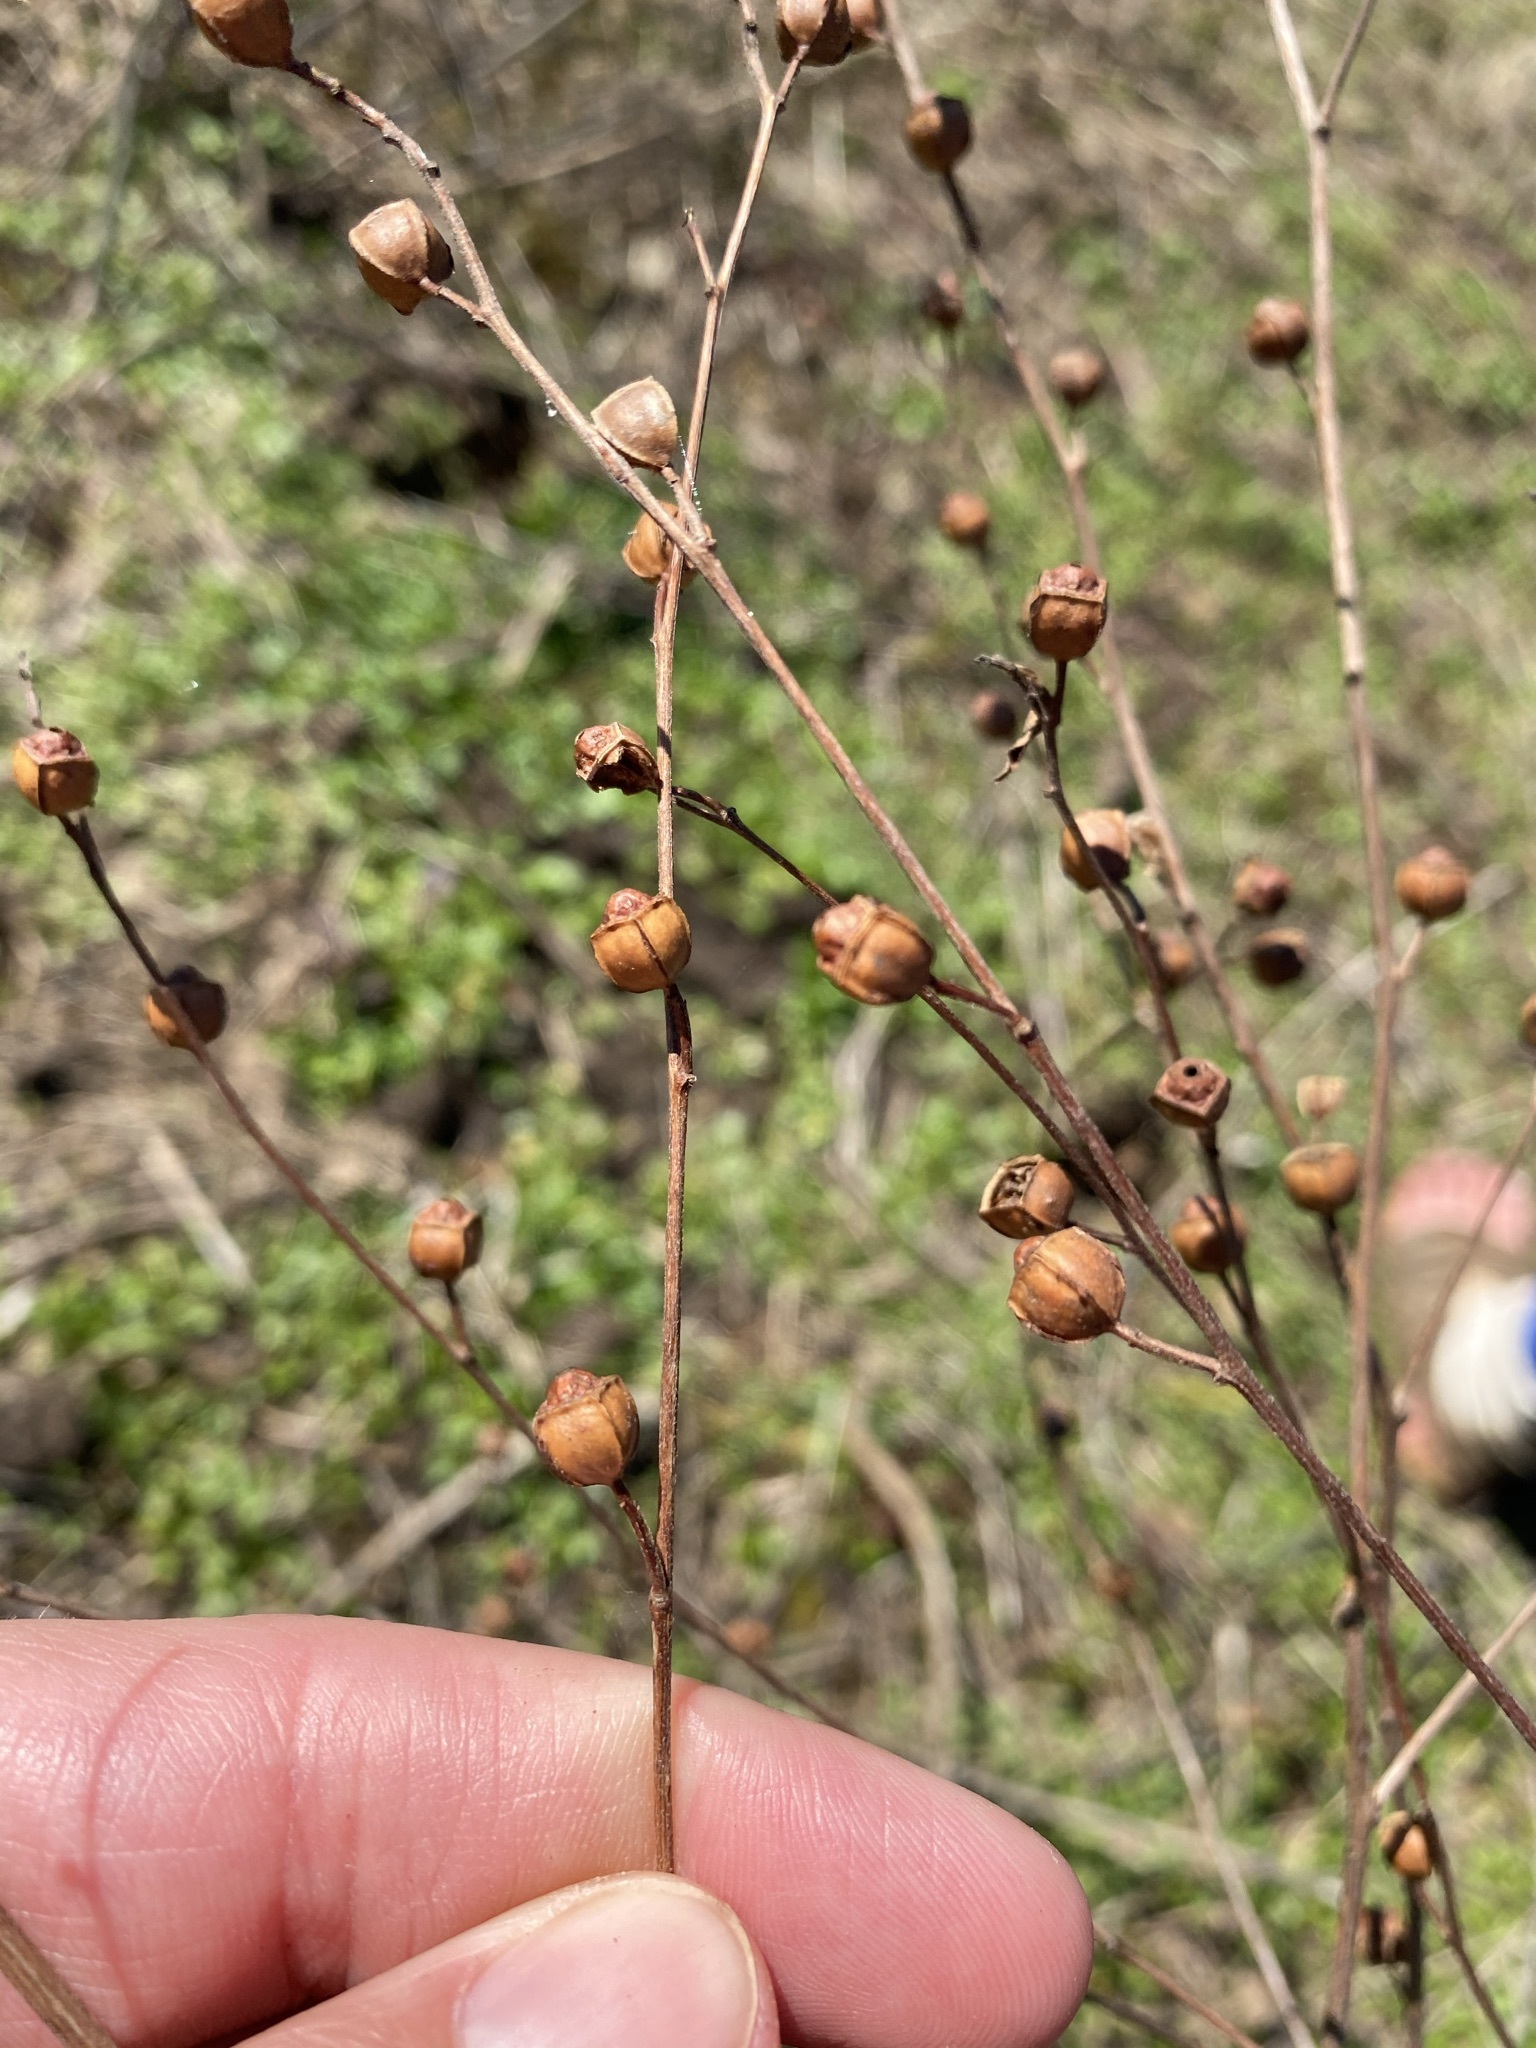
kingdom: Plantae
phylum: Tracheophyta
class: Magnoliopsida
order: Myrtales
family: Onagraceae
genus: Ludwigia
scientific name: Ludwigia alternifolia
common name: Rattlebox
